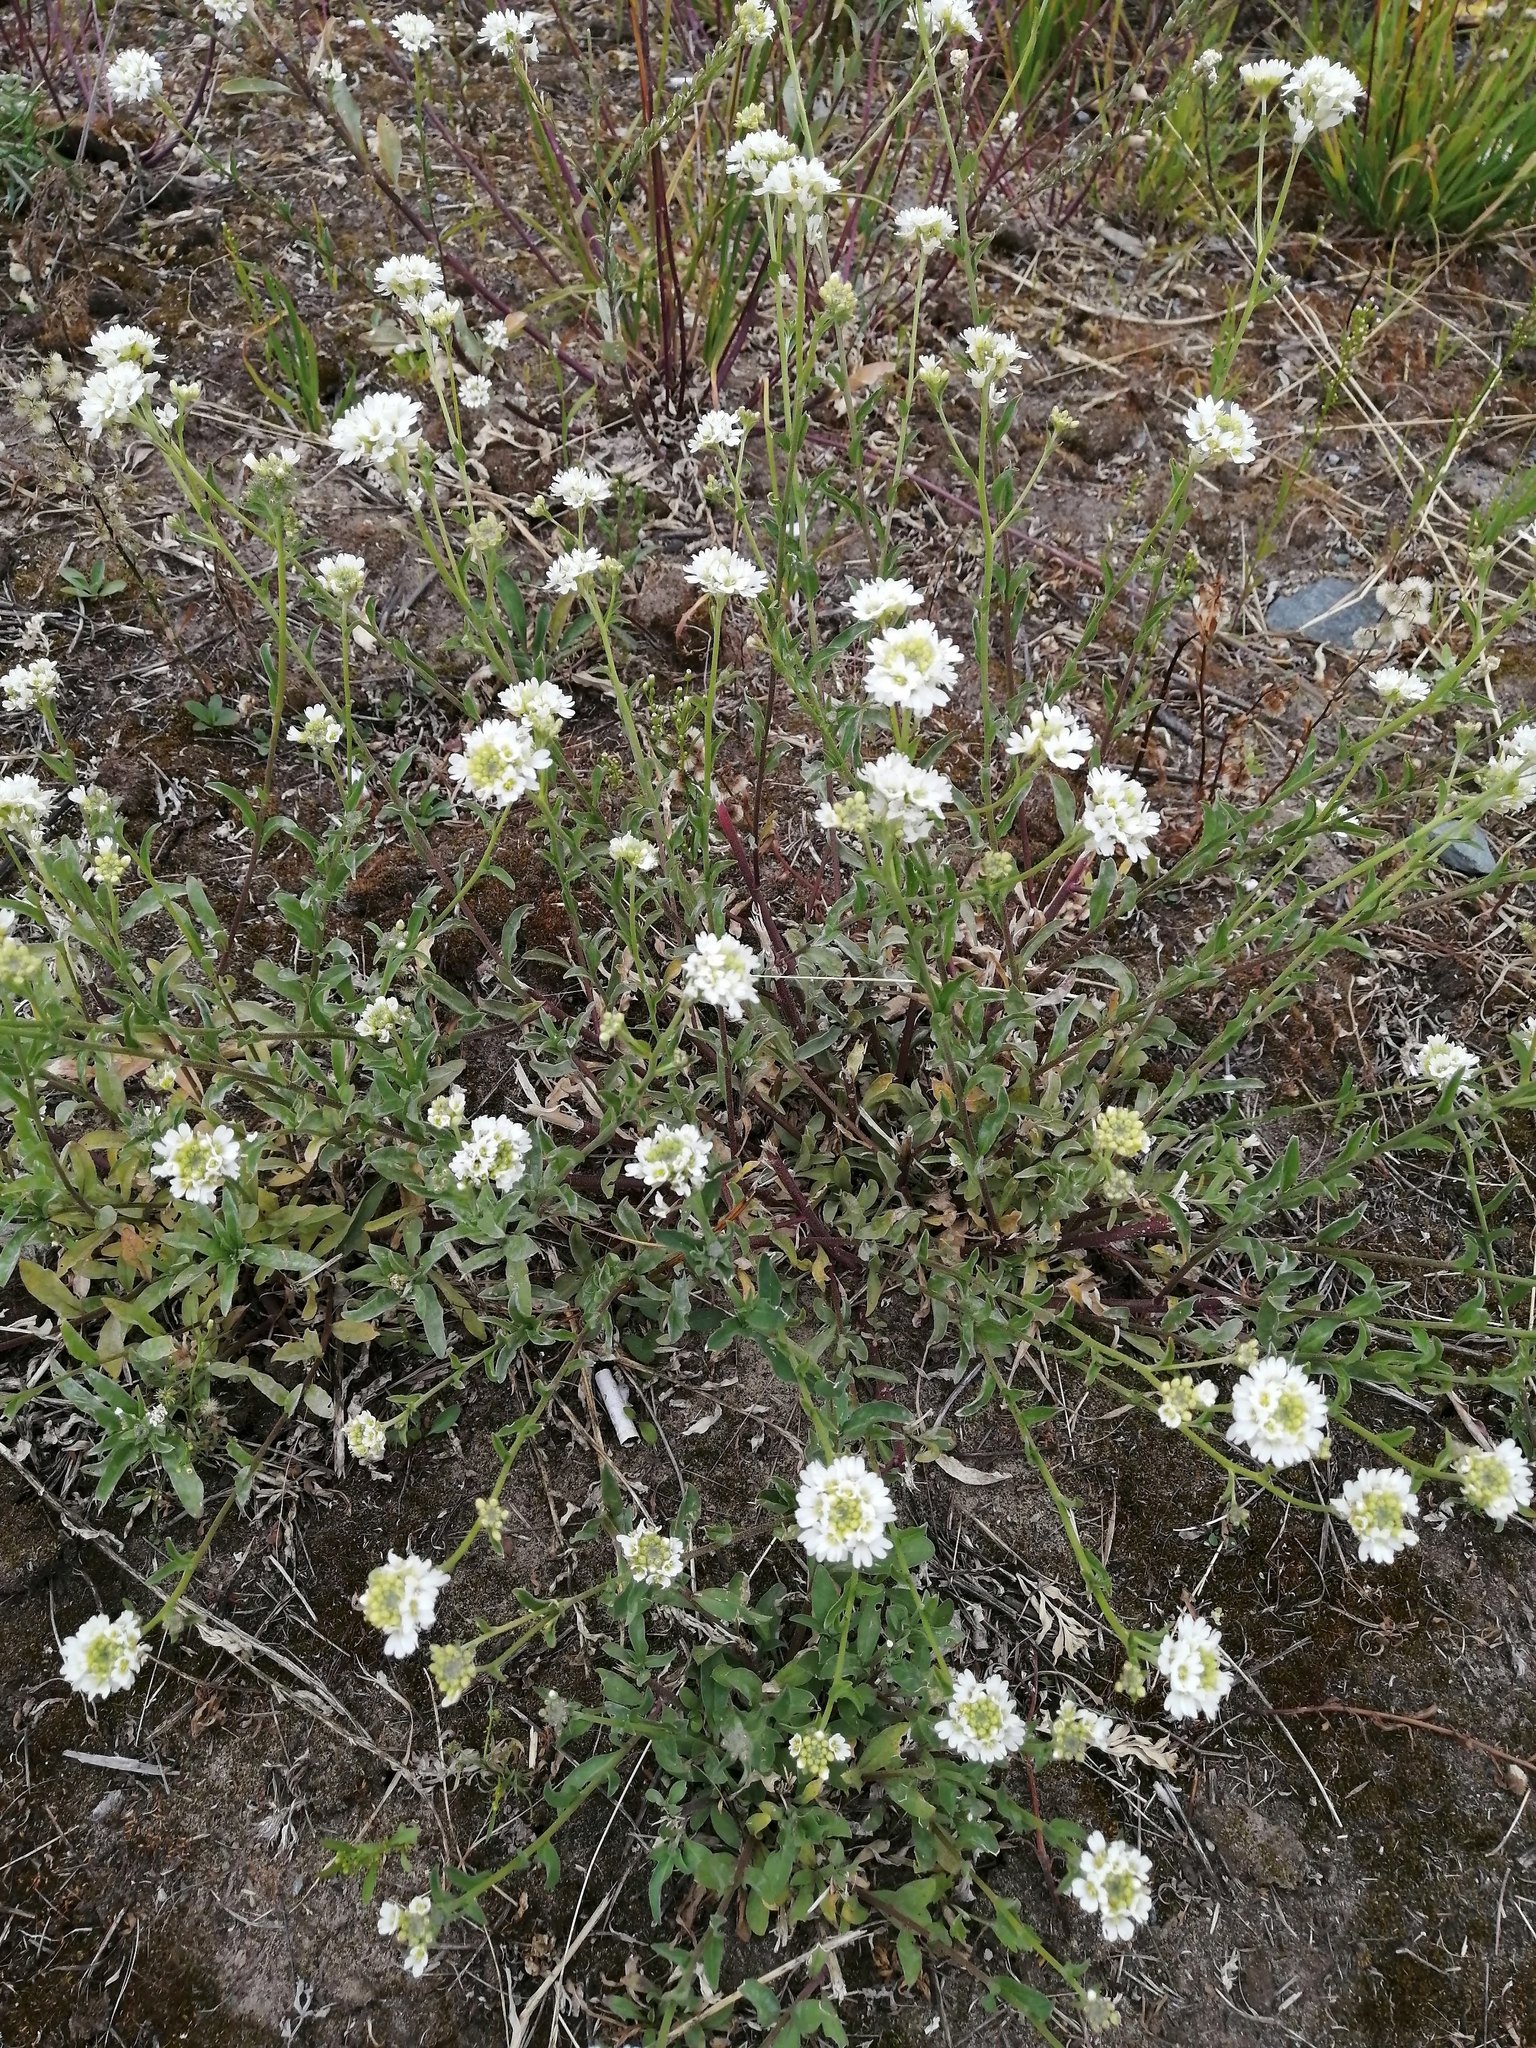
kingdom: Plantae
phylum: Tracheophyta
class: Magnoliopsida
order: Brassicales
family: Brassicaceae
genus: Berteroa
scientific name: Berteroa incana
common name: Hoary alison
